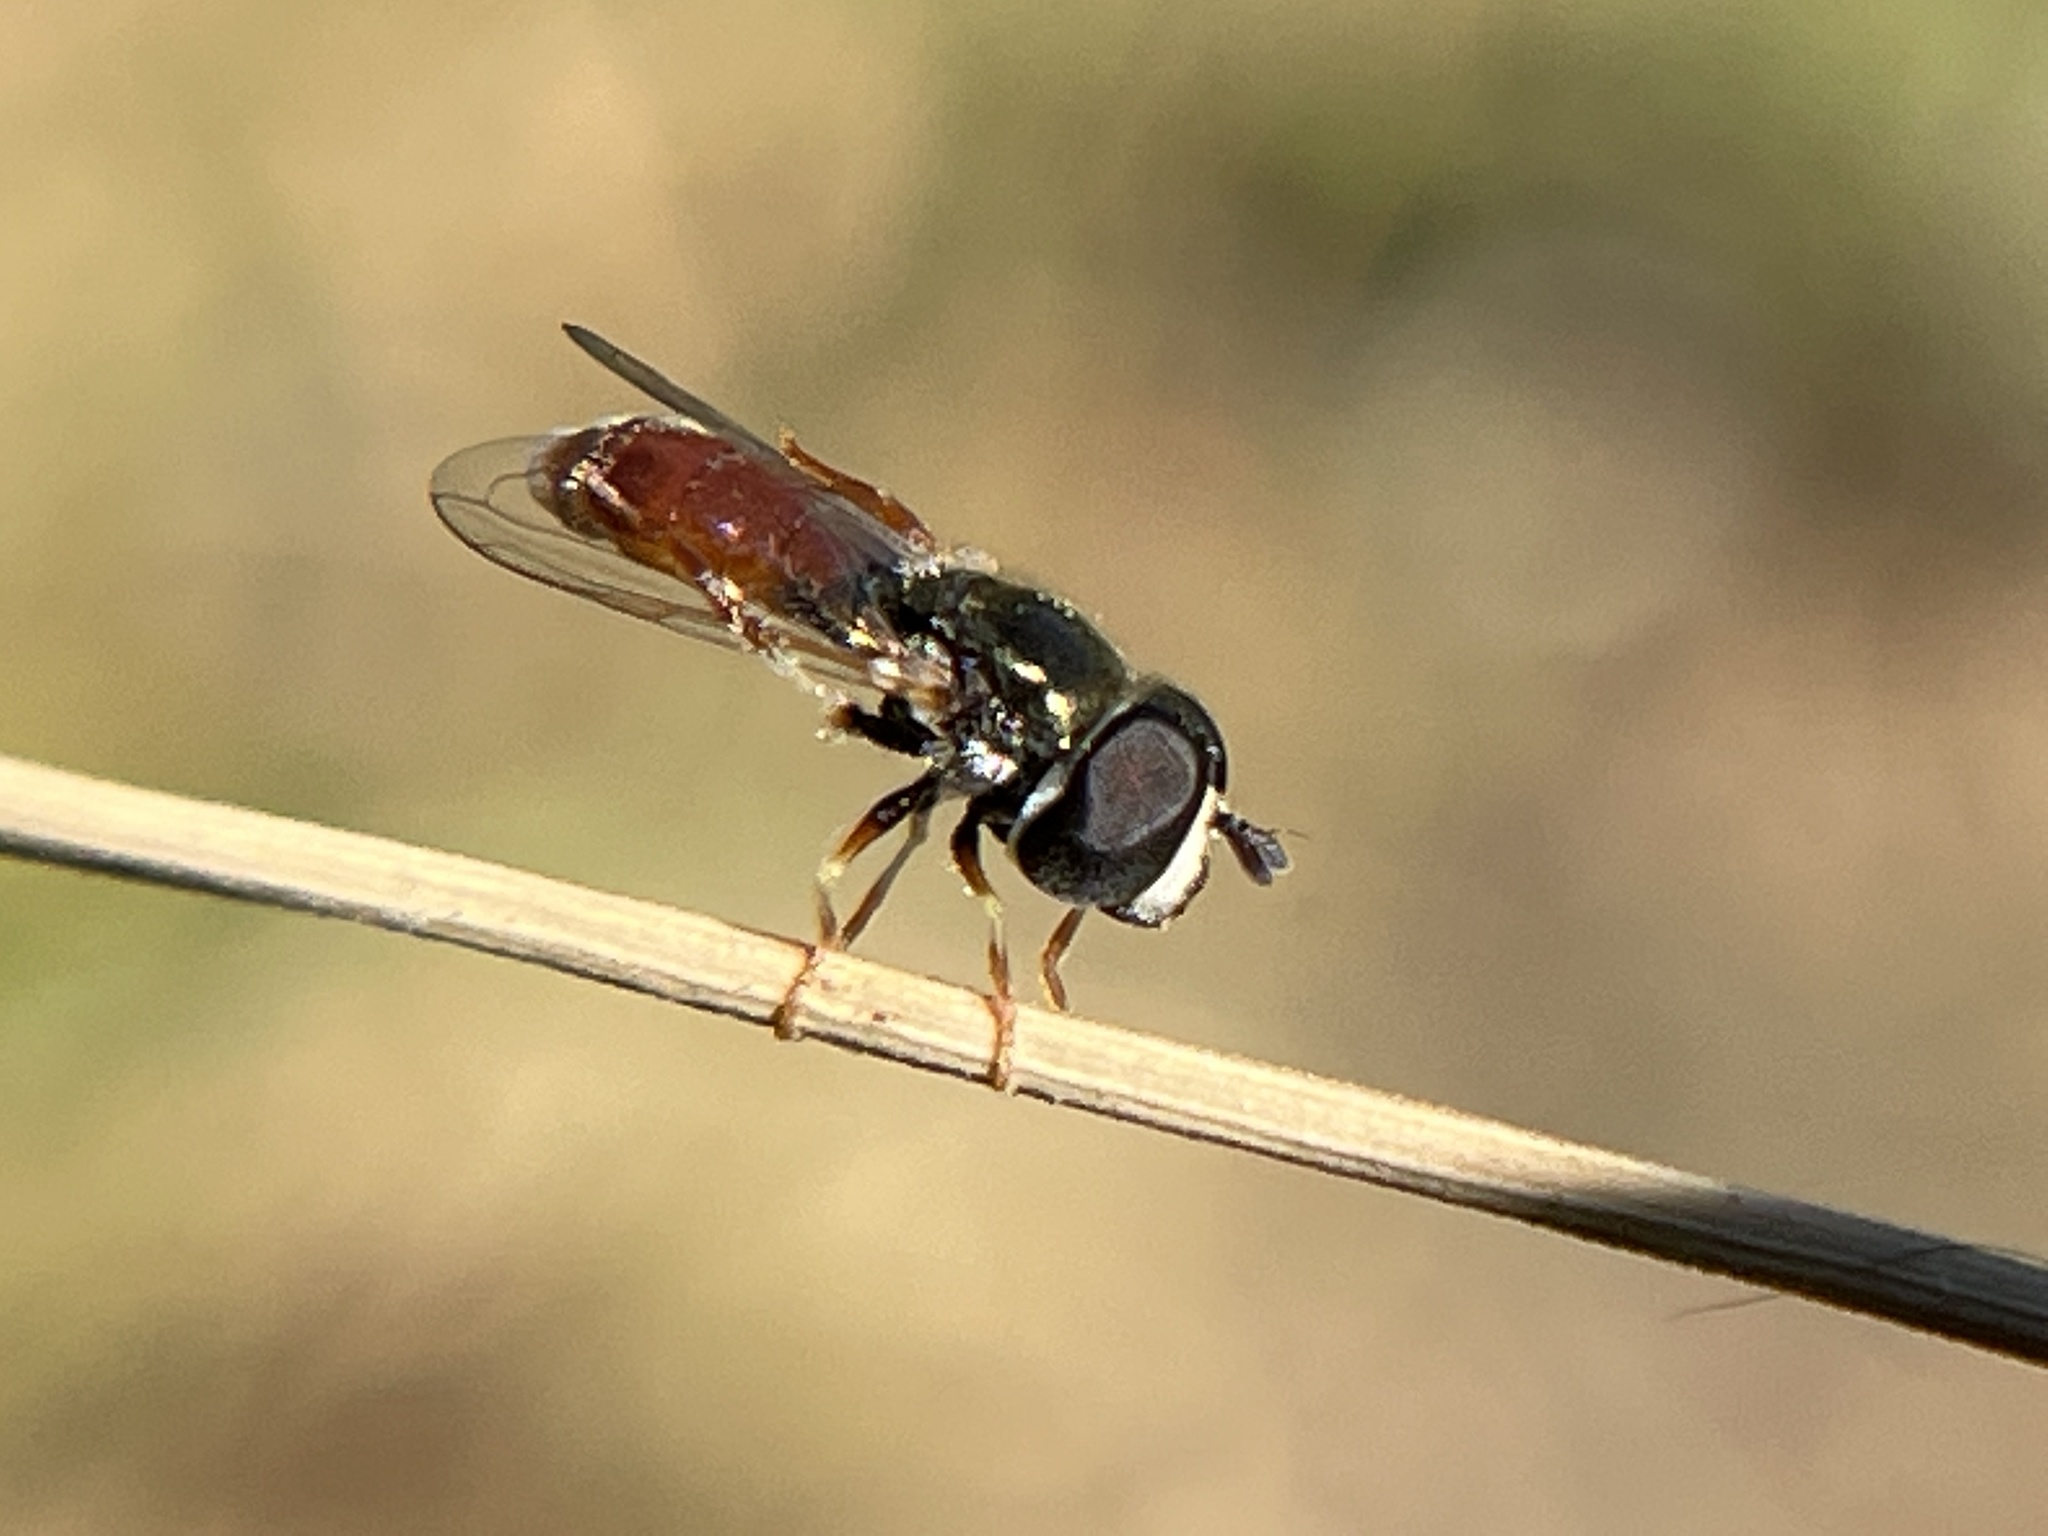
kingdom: Animalia
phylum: Arthropoda
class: Insecta
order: Diptera
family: Syrphidae
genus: Paragus
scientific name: Paragus haemorrhous
